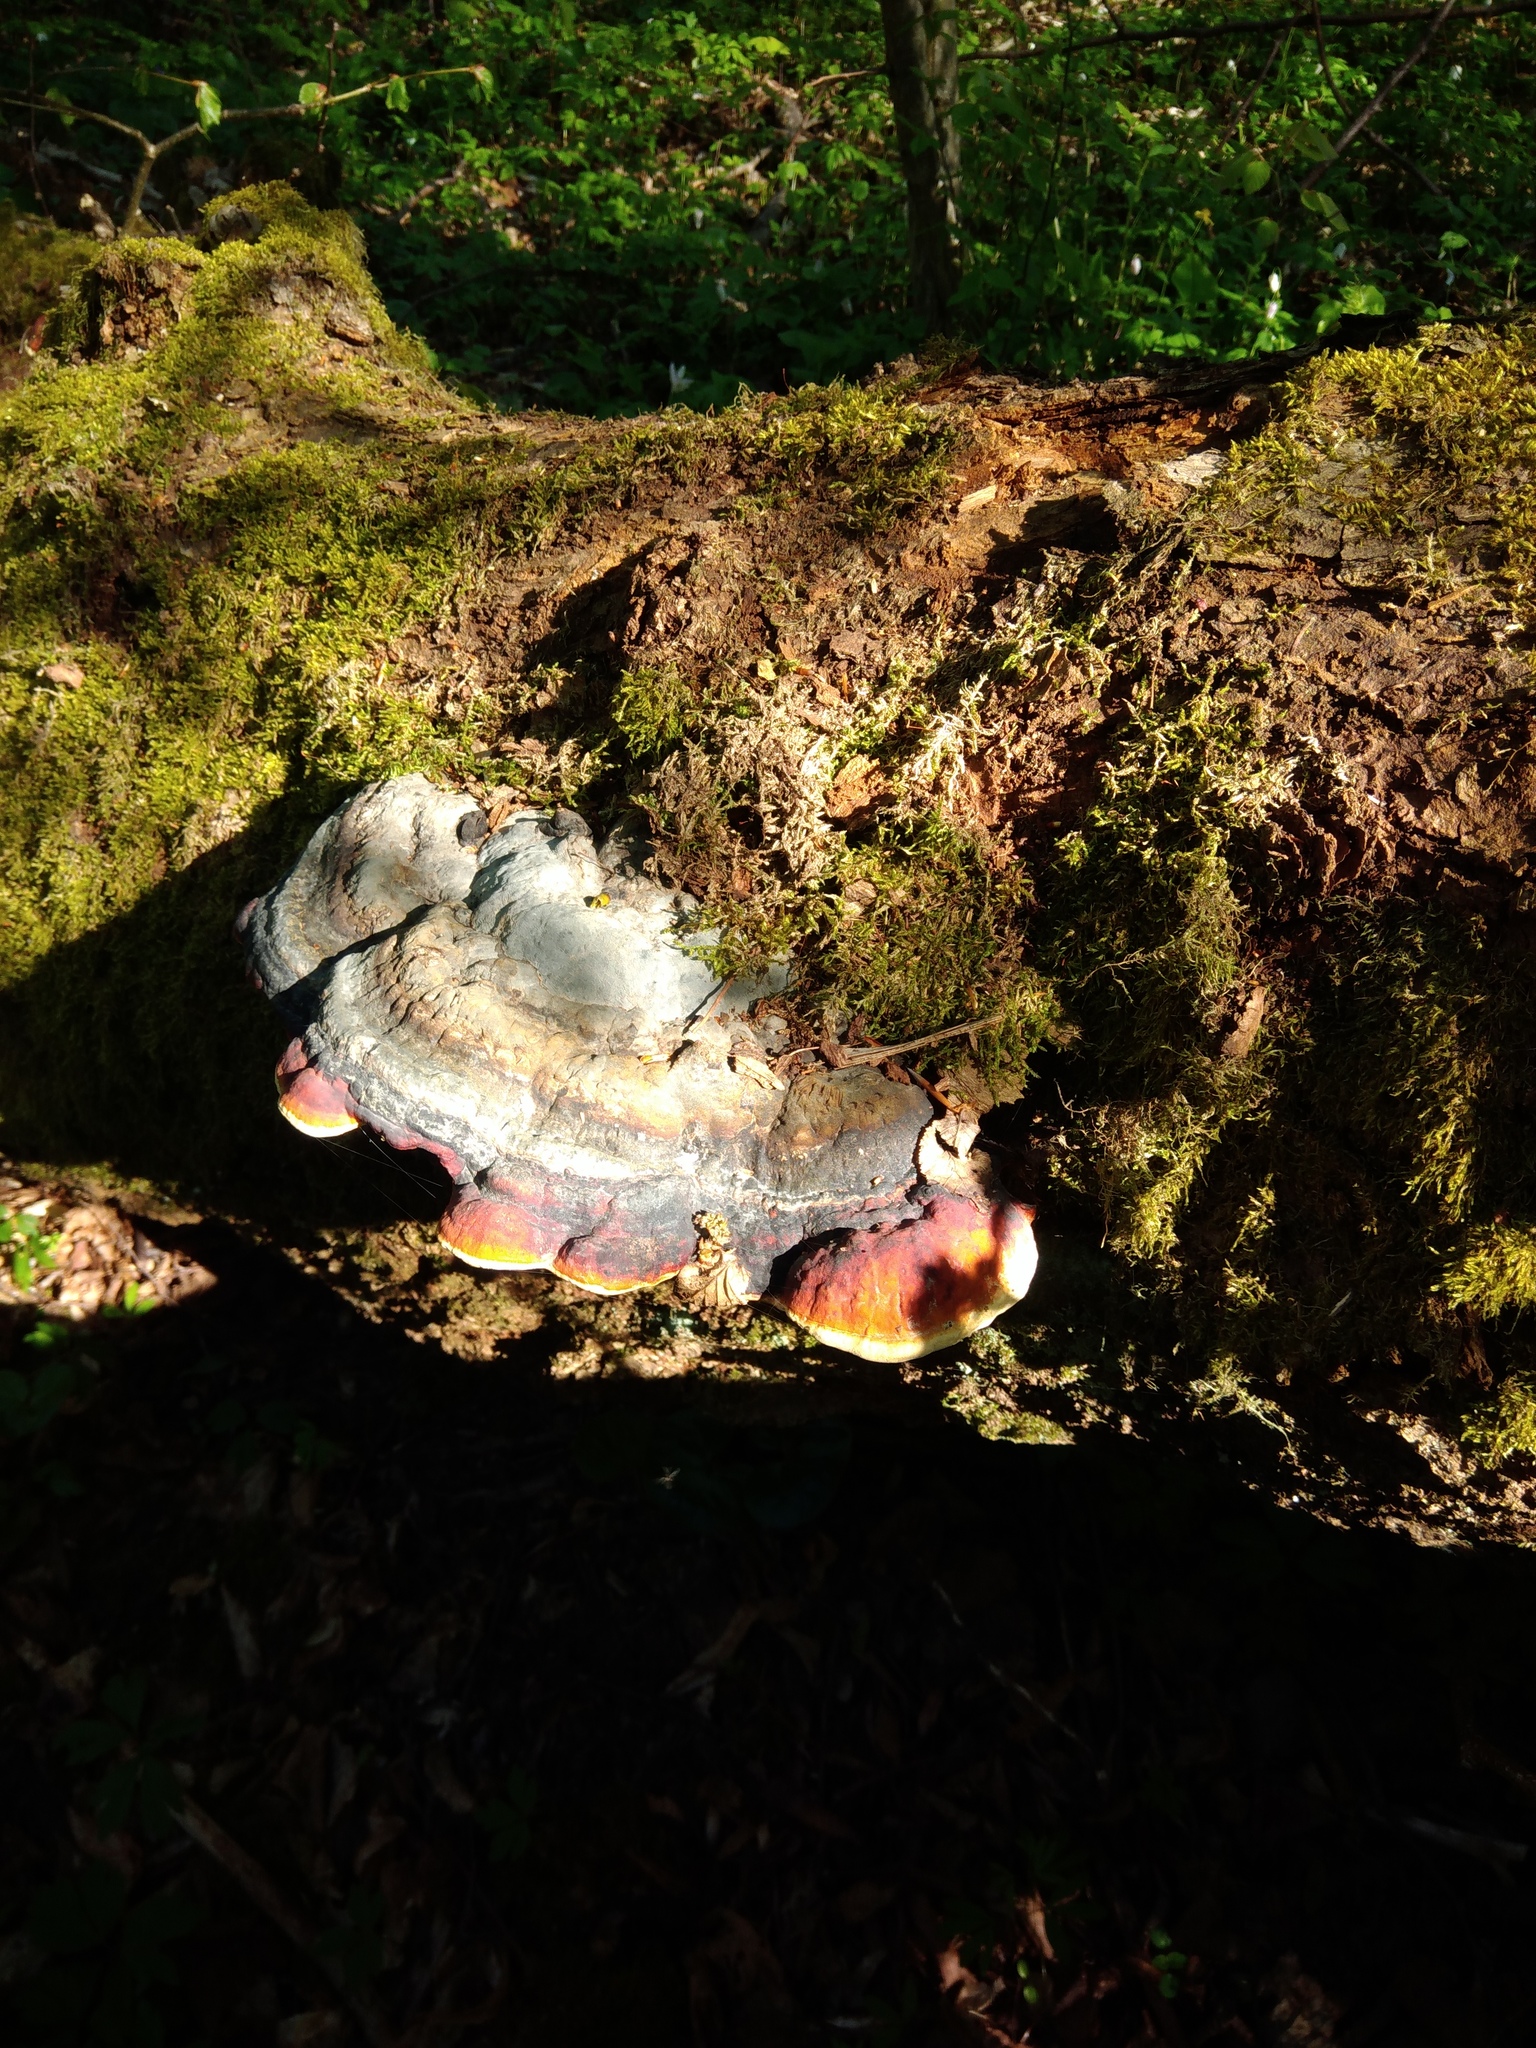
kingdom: Fungi
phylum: Basidiomycota
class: Agaricomycetes
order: Polyporales
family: Fomitopsidaceae
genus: Fomitopsis
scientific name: Fomitopsis pinicola
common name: Red-belted bracket
